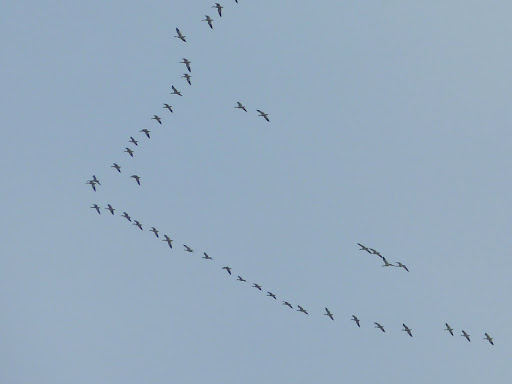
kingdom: Animalia
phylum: Chordata
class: Aves
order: Anseriformes
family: Anatidae
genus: Anser
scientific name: Anser caerulescens
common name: Snow goose
